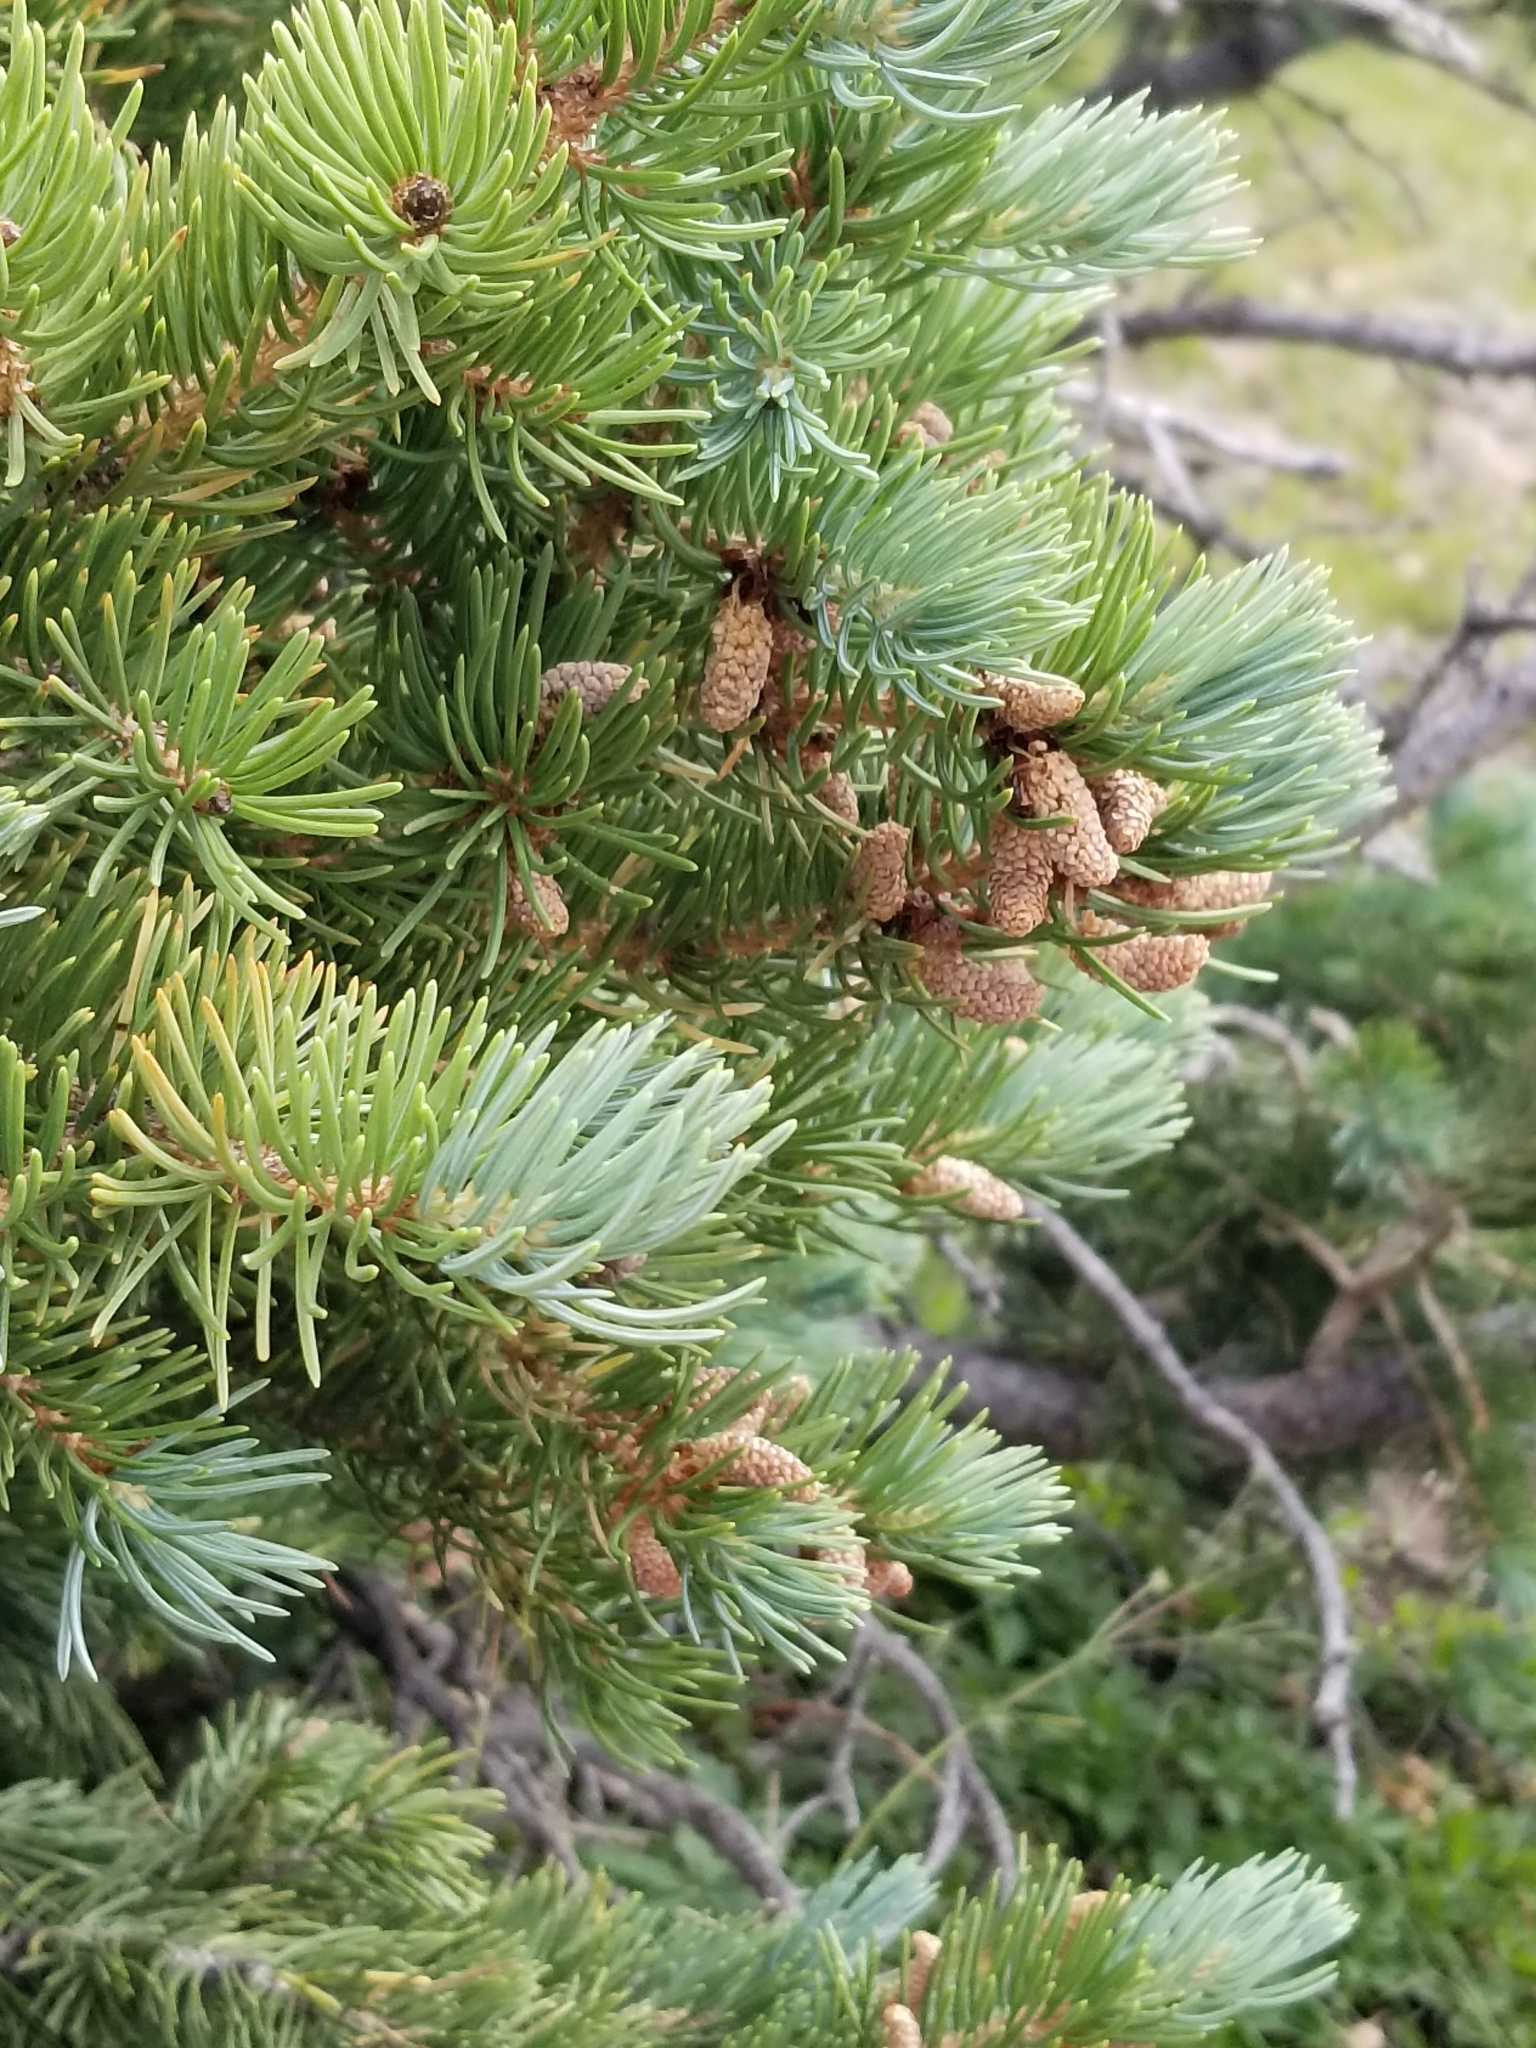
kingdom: Plantae
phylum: Tracheophyta
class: Pinopsida
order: Pinales
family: Pinaceae
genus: Picea
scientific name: Picea engelmannii
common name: Engelmann spruce
